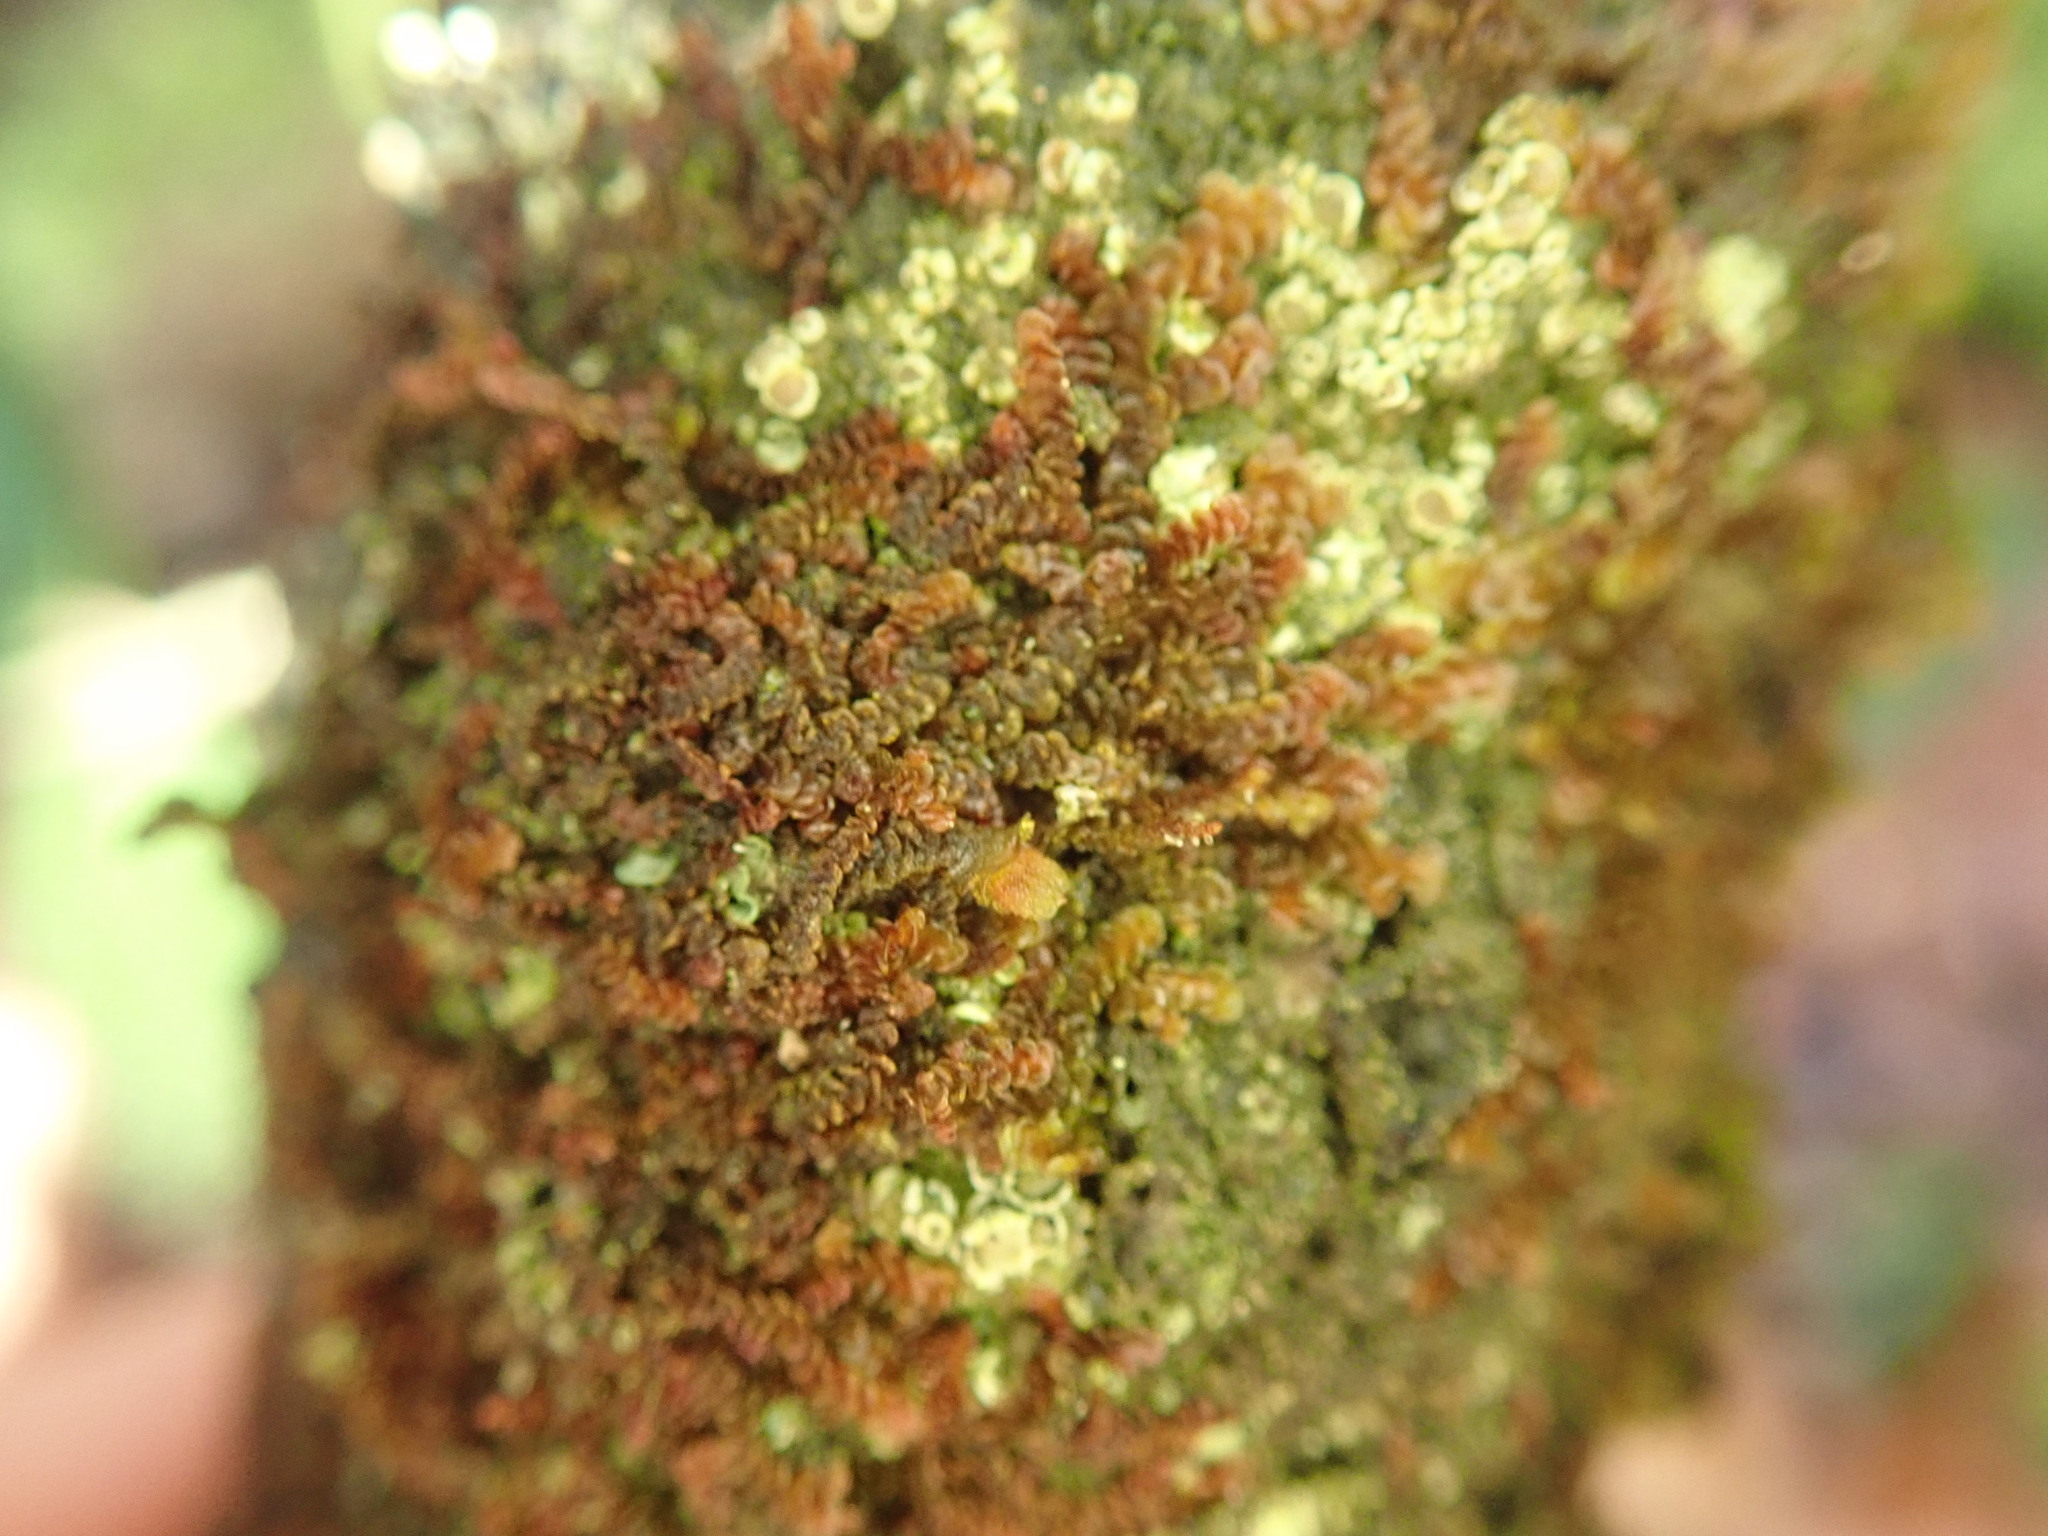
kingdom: Plantae
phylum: Marchantiophyta
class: Jungermanniopsida
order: Porellales
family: Frullaniaceae
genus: Frullania
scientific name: Frullania dilatata
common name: Dilated scalewort
